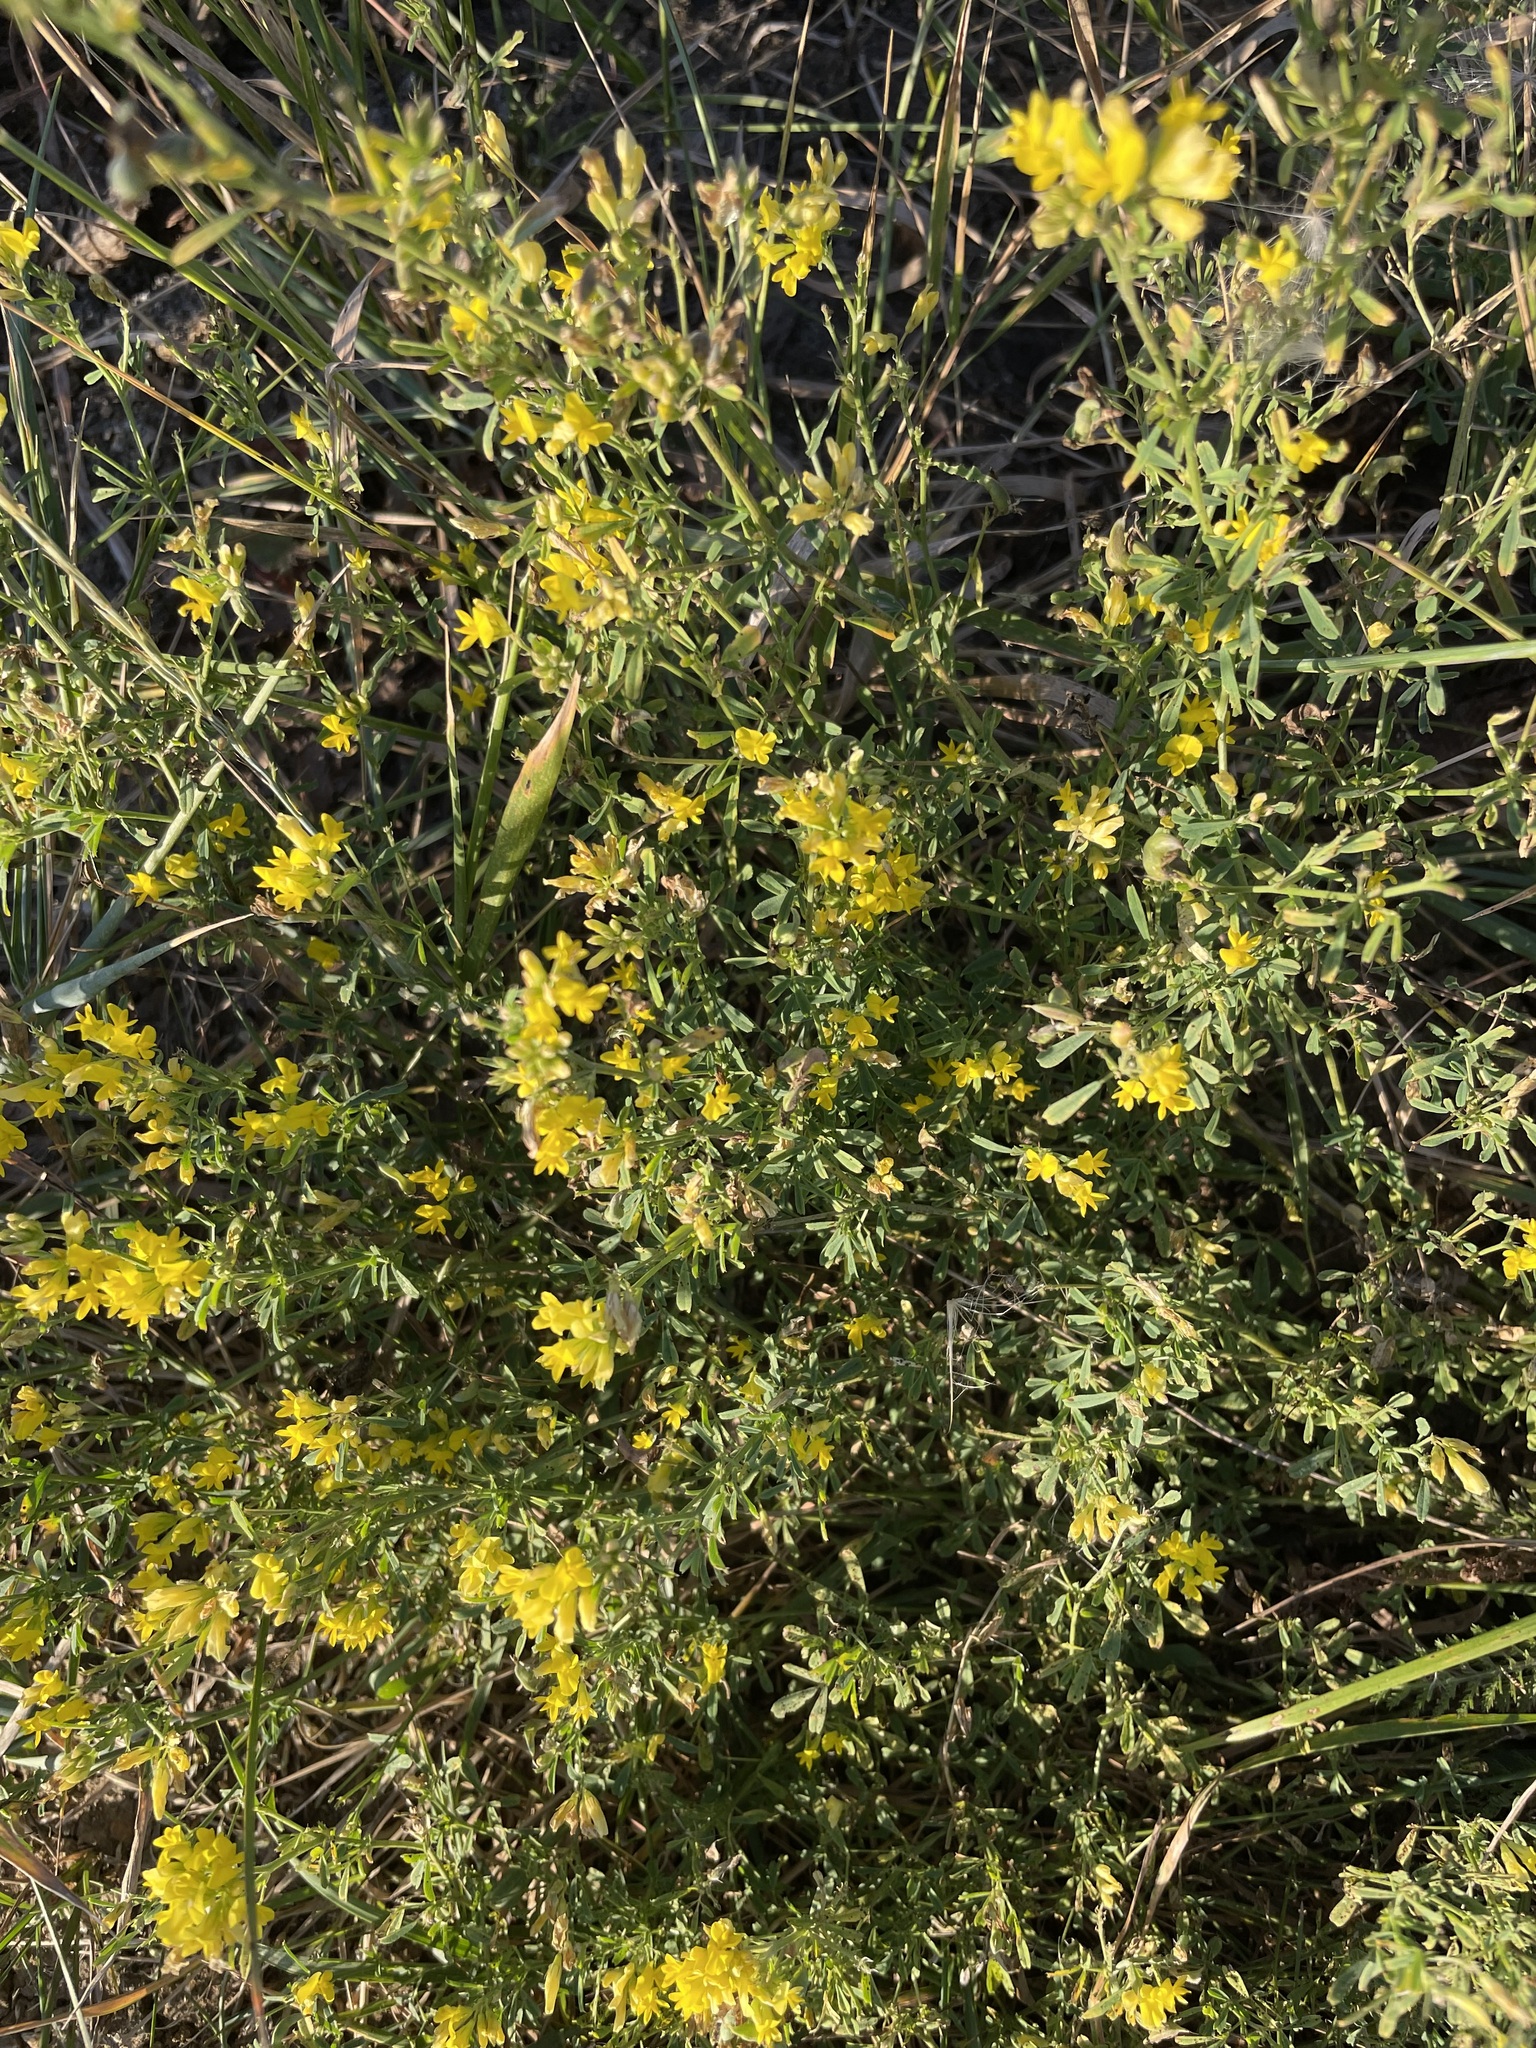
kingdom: Plantae
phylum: Tracheophyta
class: Magnoliopsida
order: Fabales
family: Fabaceae
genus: Medicago
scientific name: Medicago falcata
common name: Sickle medick
